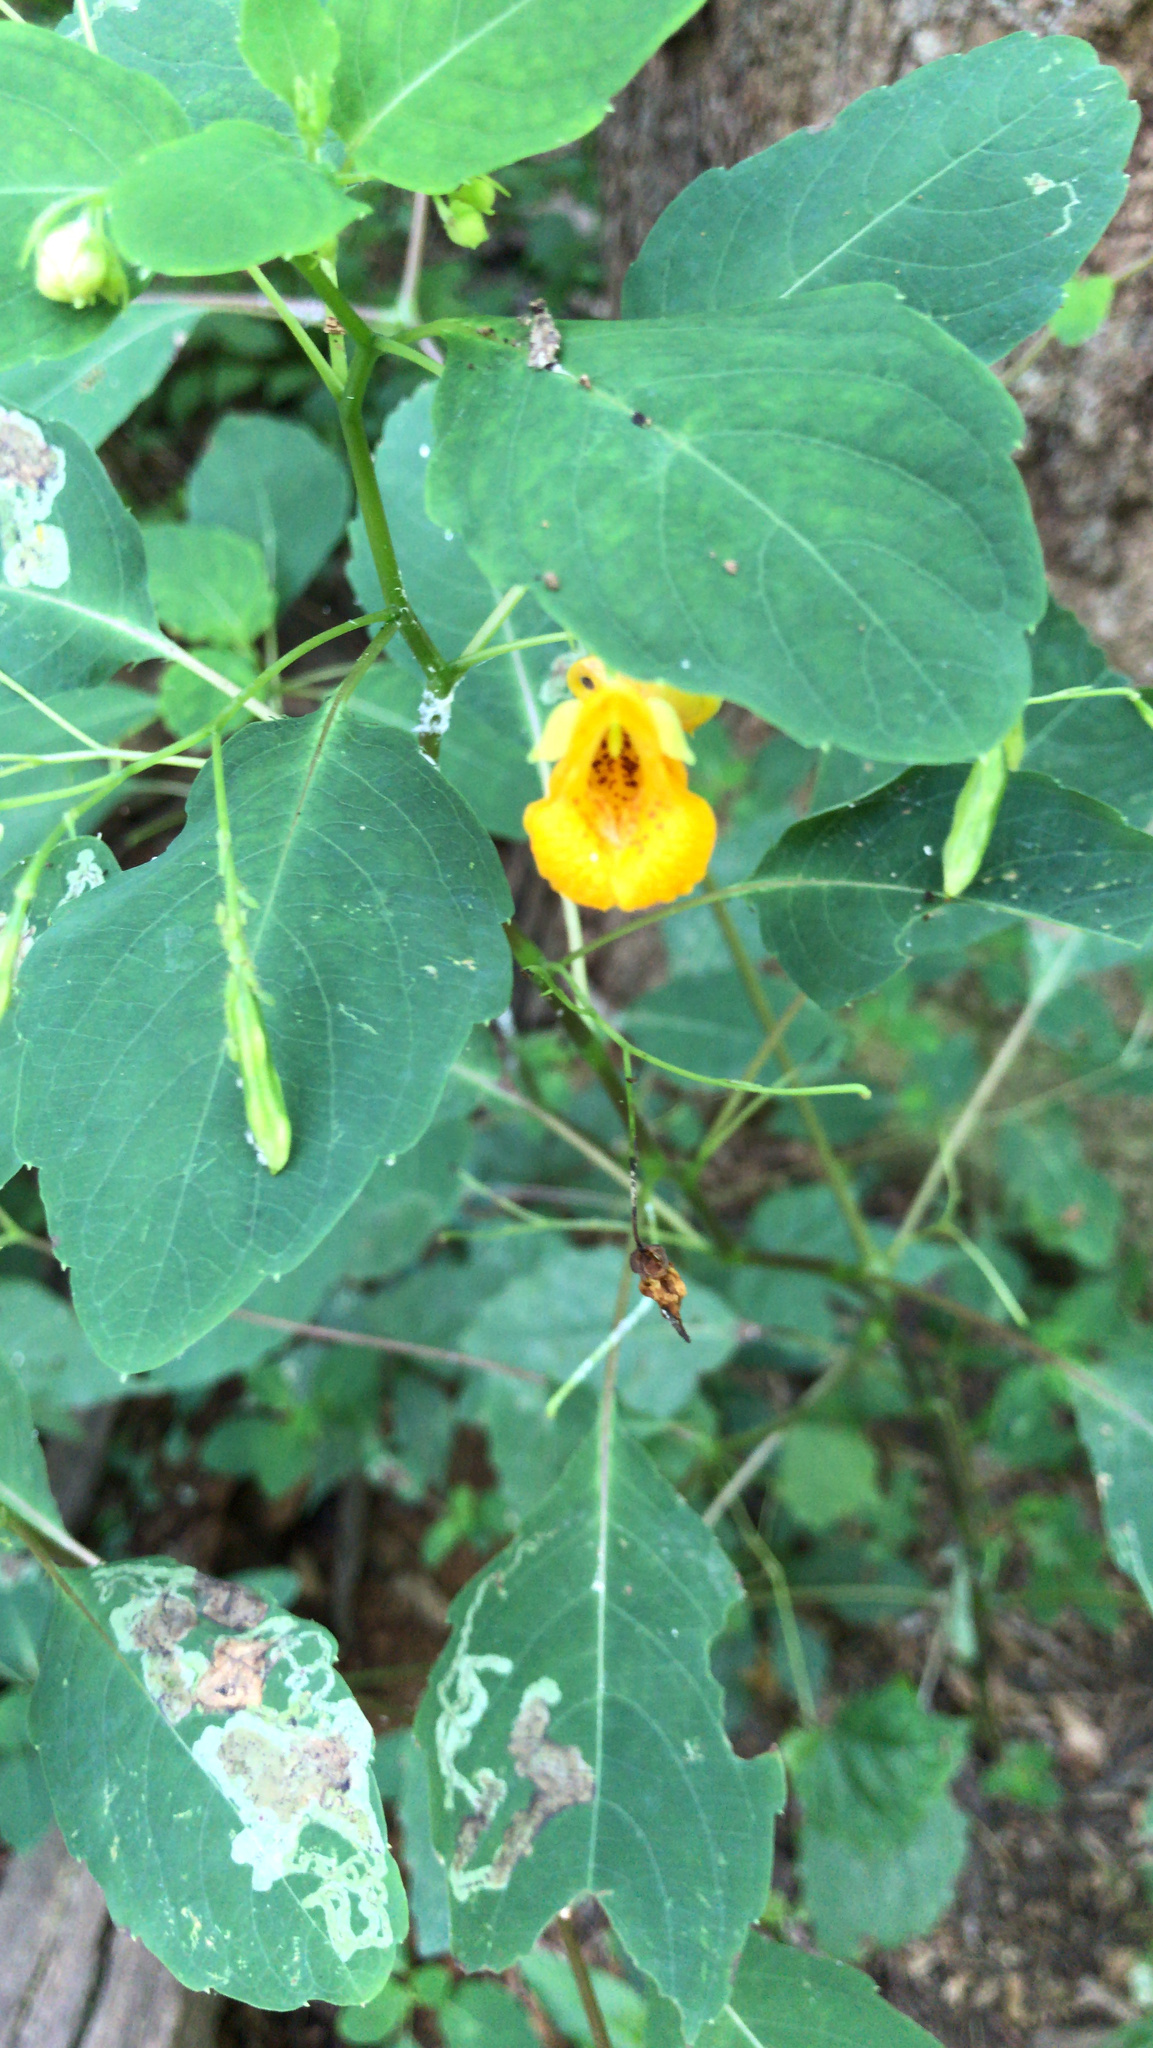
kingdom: Plantae
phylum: Tracheophyta
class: Magnoliopsida
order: Ericales
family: Balsaminaceae
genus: Impatiens
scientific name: Impatiens capensis
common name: Orange balsam
